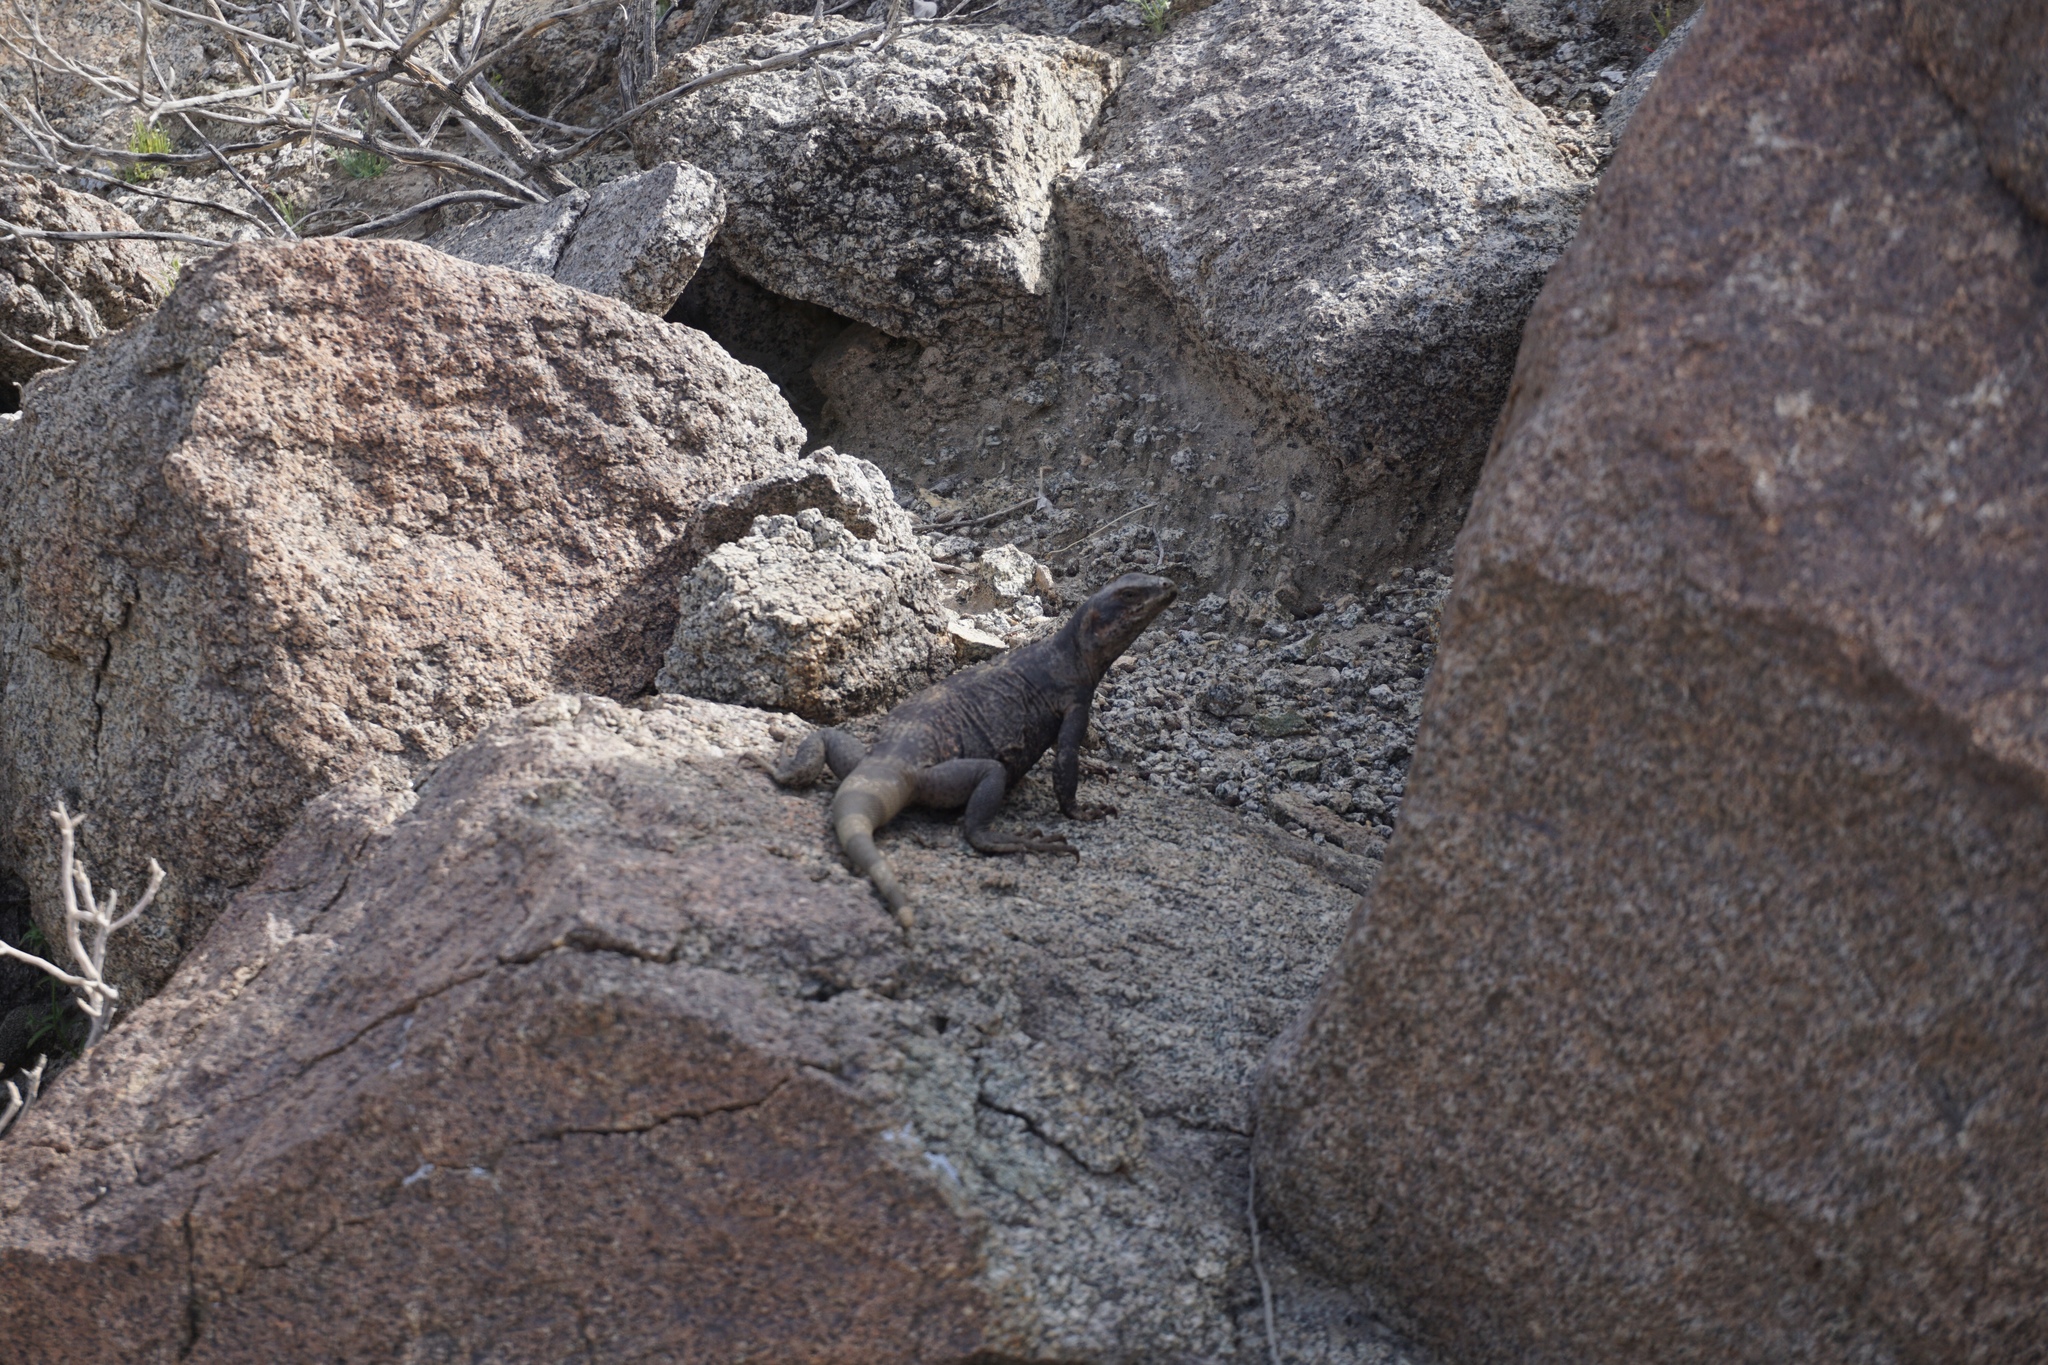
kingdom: Animalia
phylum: Chordata
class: Squamata
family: Iguanidae
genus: Sauromalus
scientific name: Sauromalus ater
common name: Northern chuckwalla
